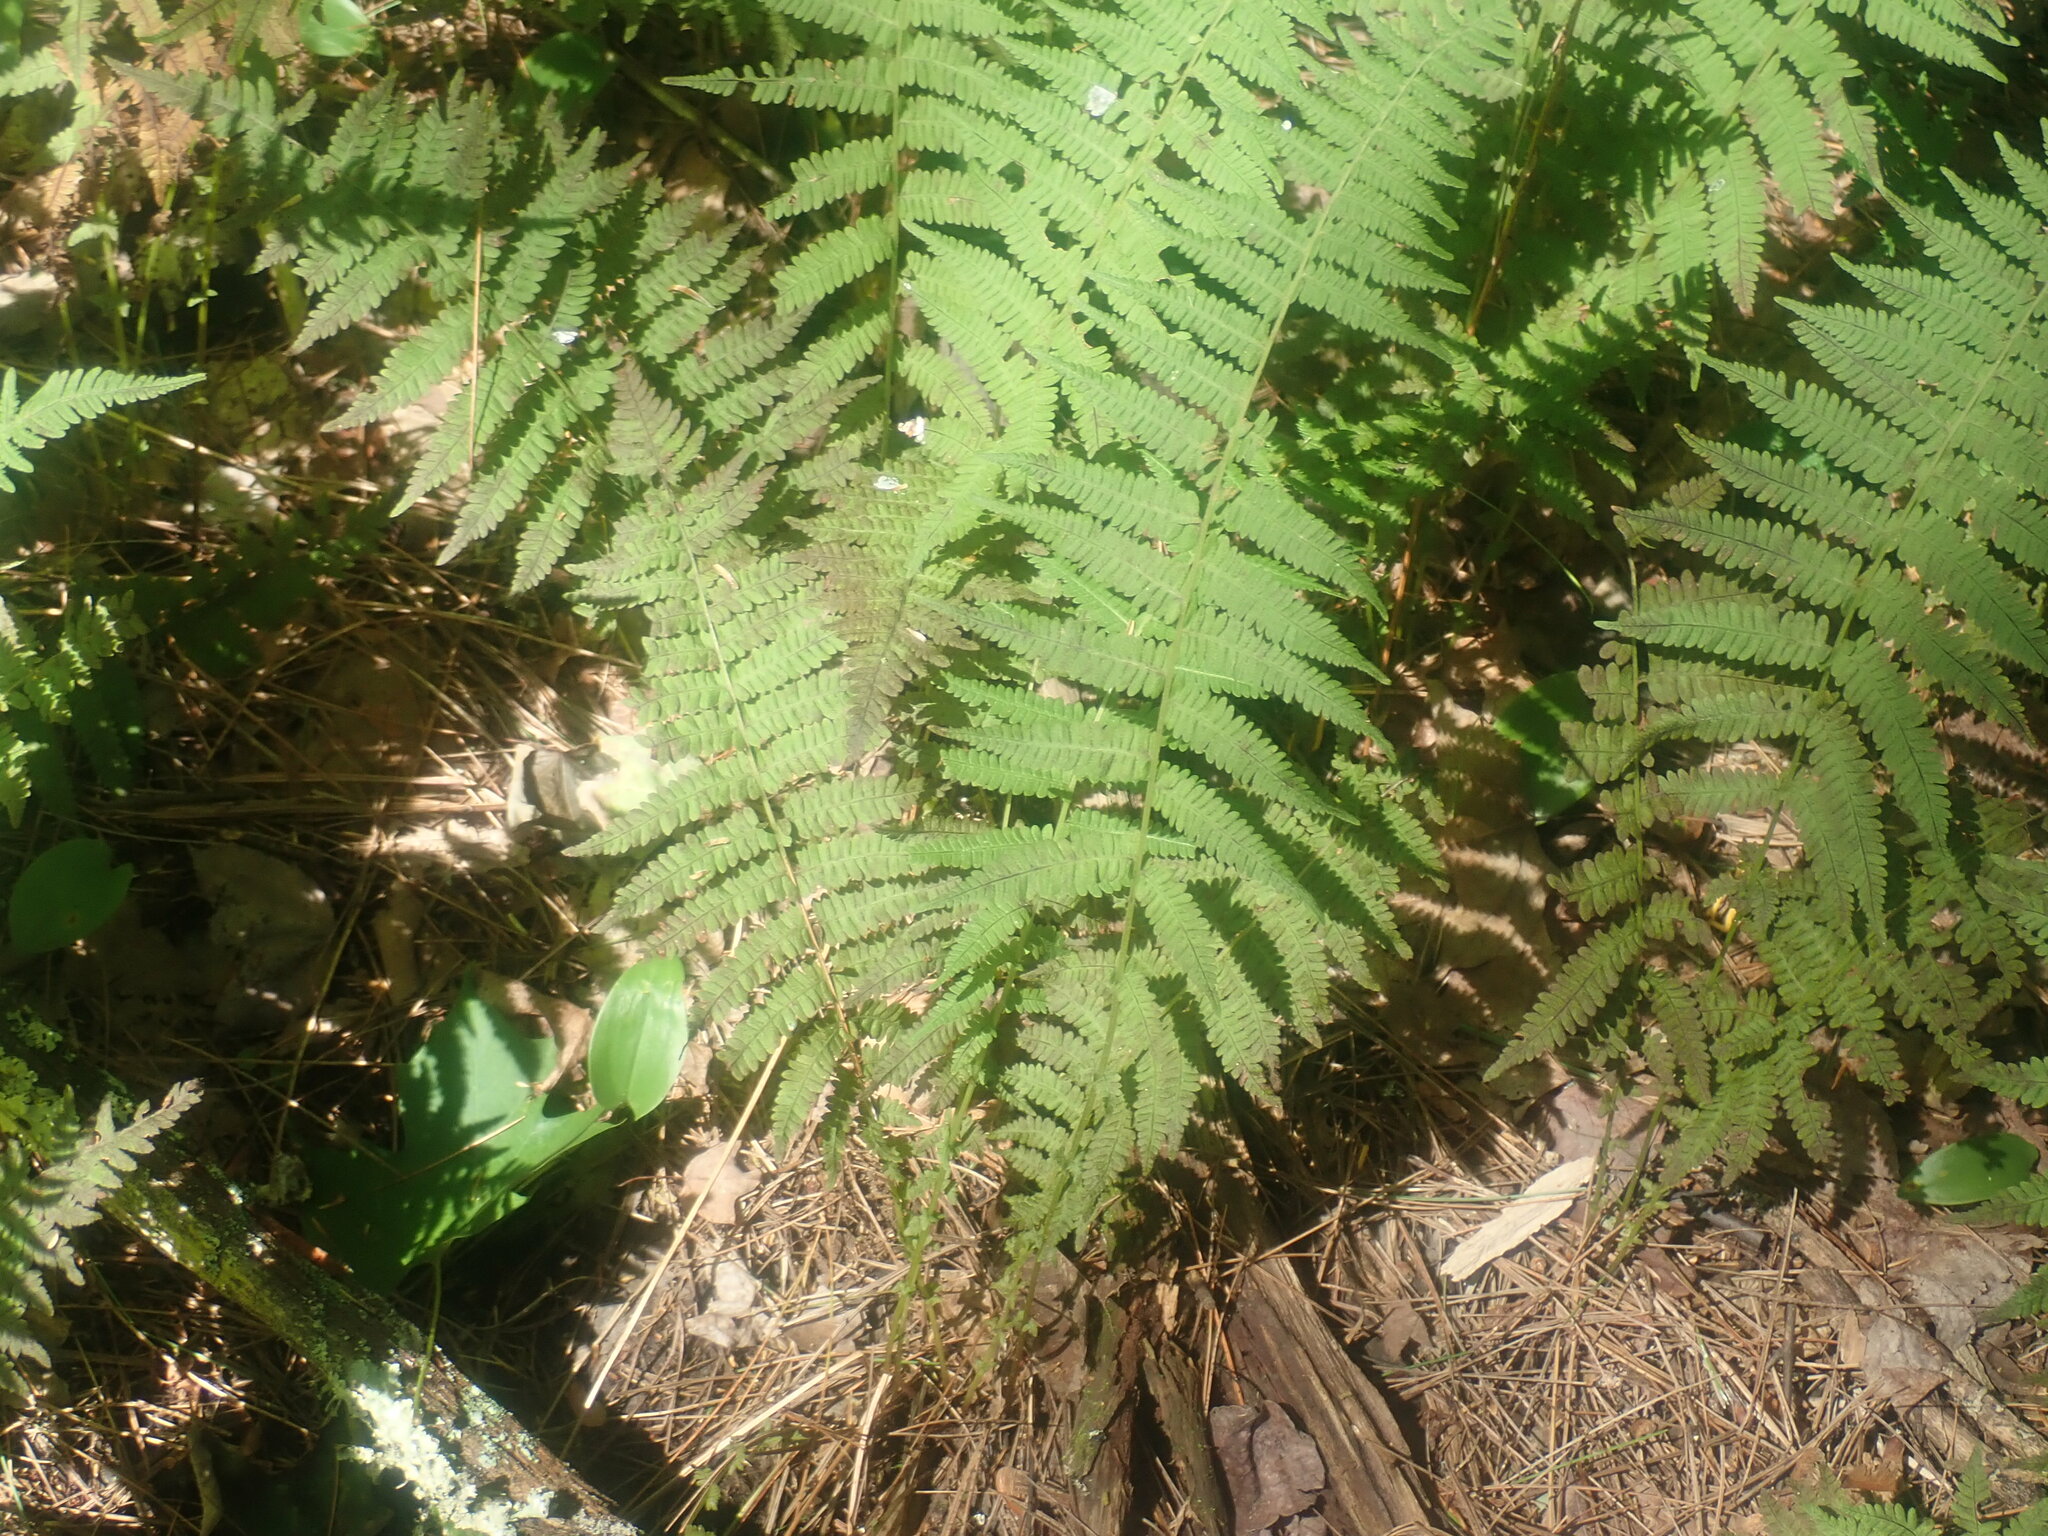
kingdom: Plantae
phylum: Tracheophyta
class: Polypodiopsida
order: Polypodiales
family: Thelypteridaceae
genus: Amauropelta
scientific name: Amauropelta noveboracensis
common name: New york fern
